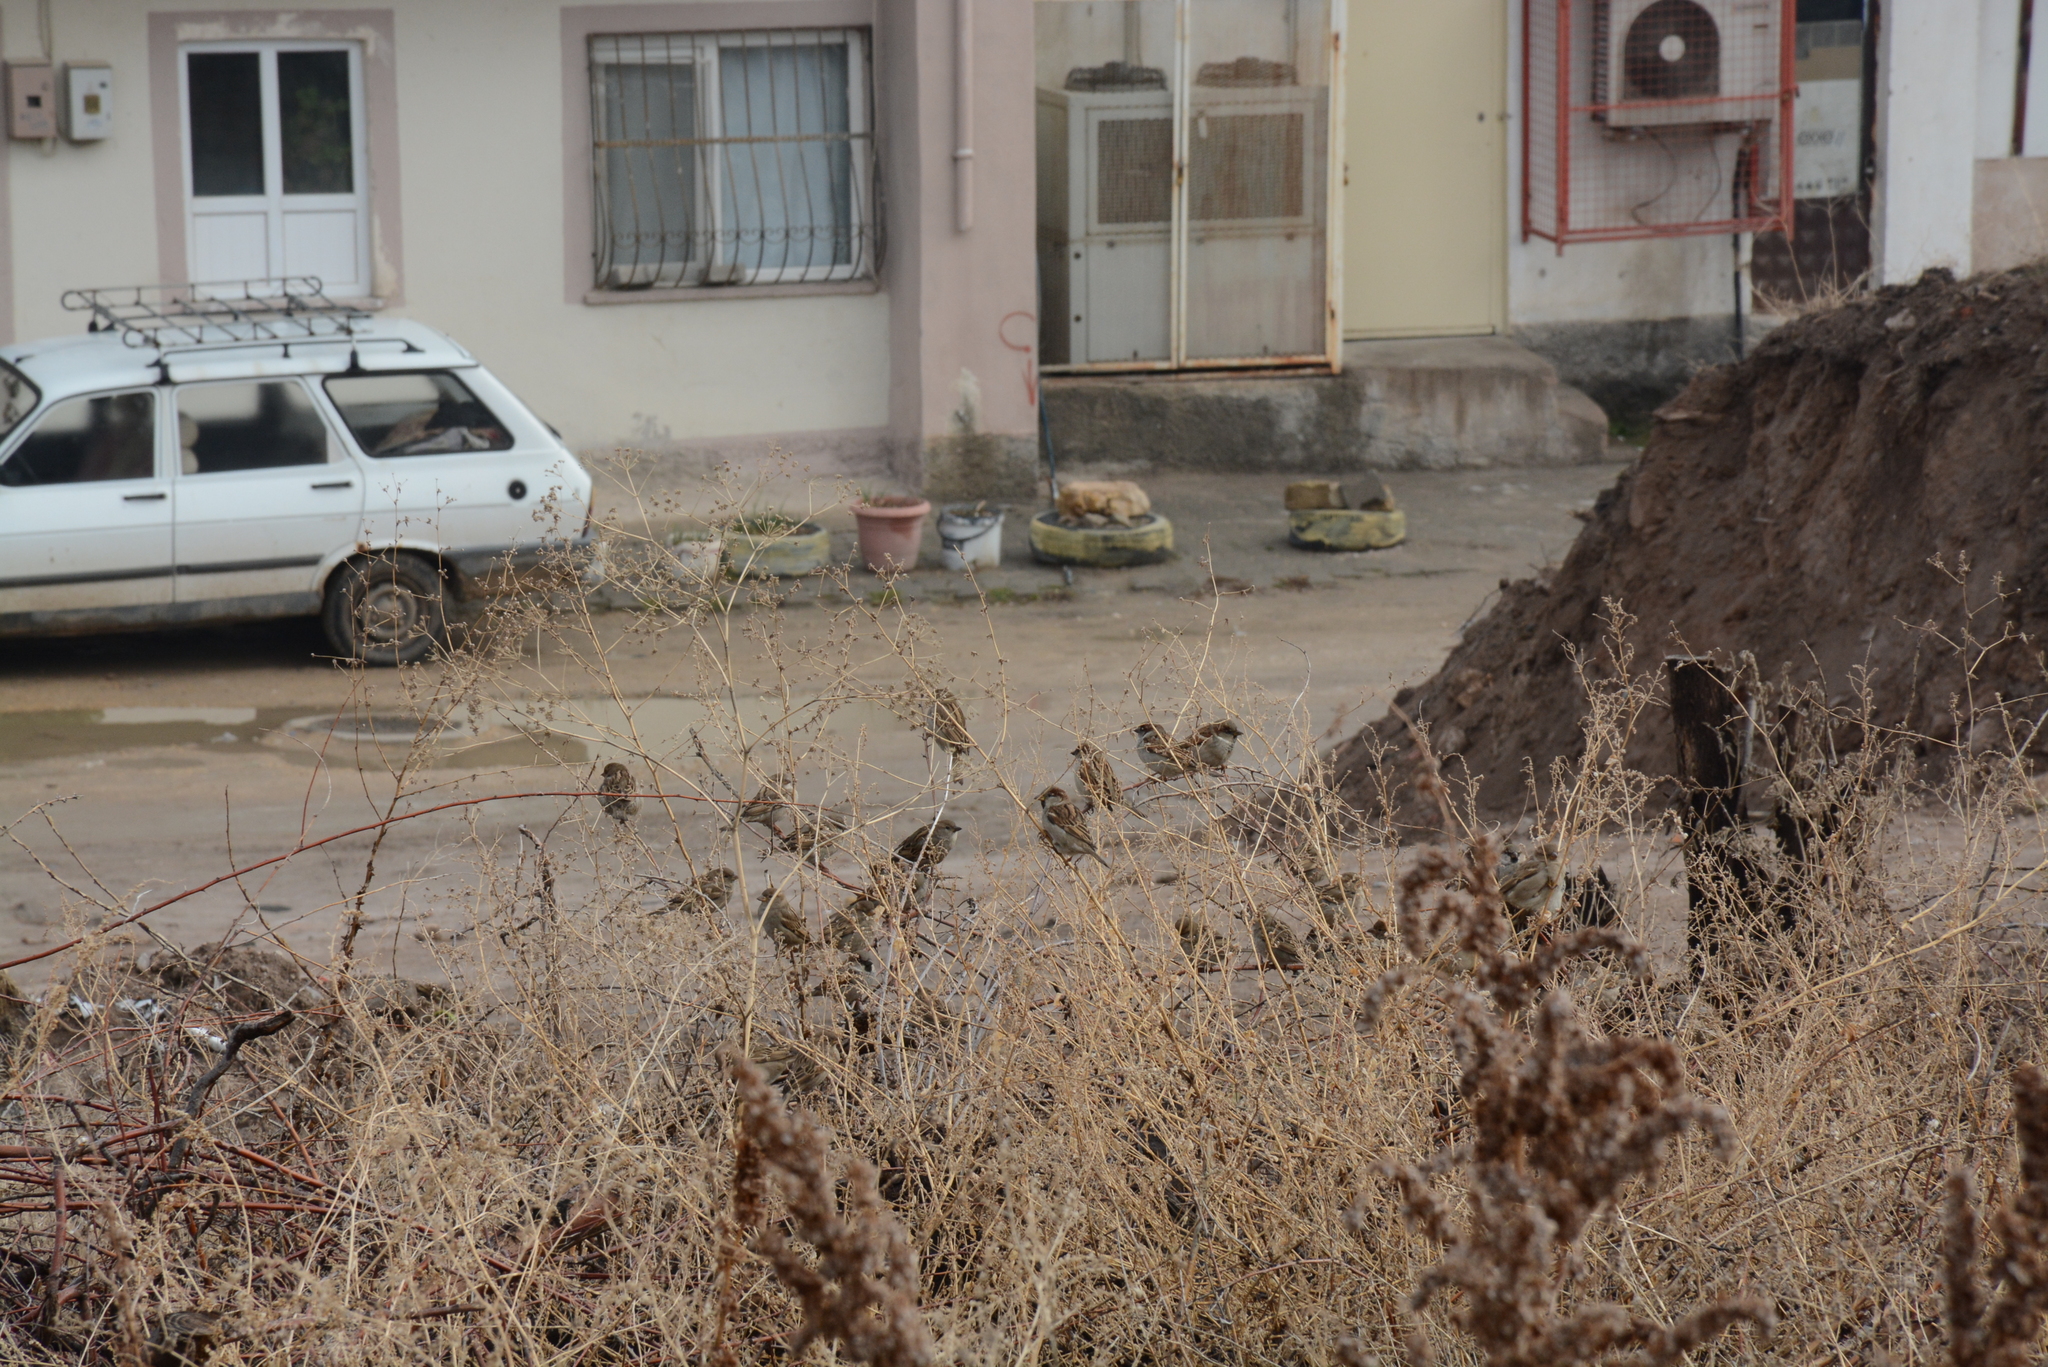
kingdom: Animalia
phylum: Chordata
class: Aves
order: Passeriformes
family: Passeridae
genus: Passer
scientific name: Passer domesticus
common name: House sparrow
